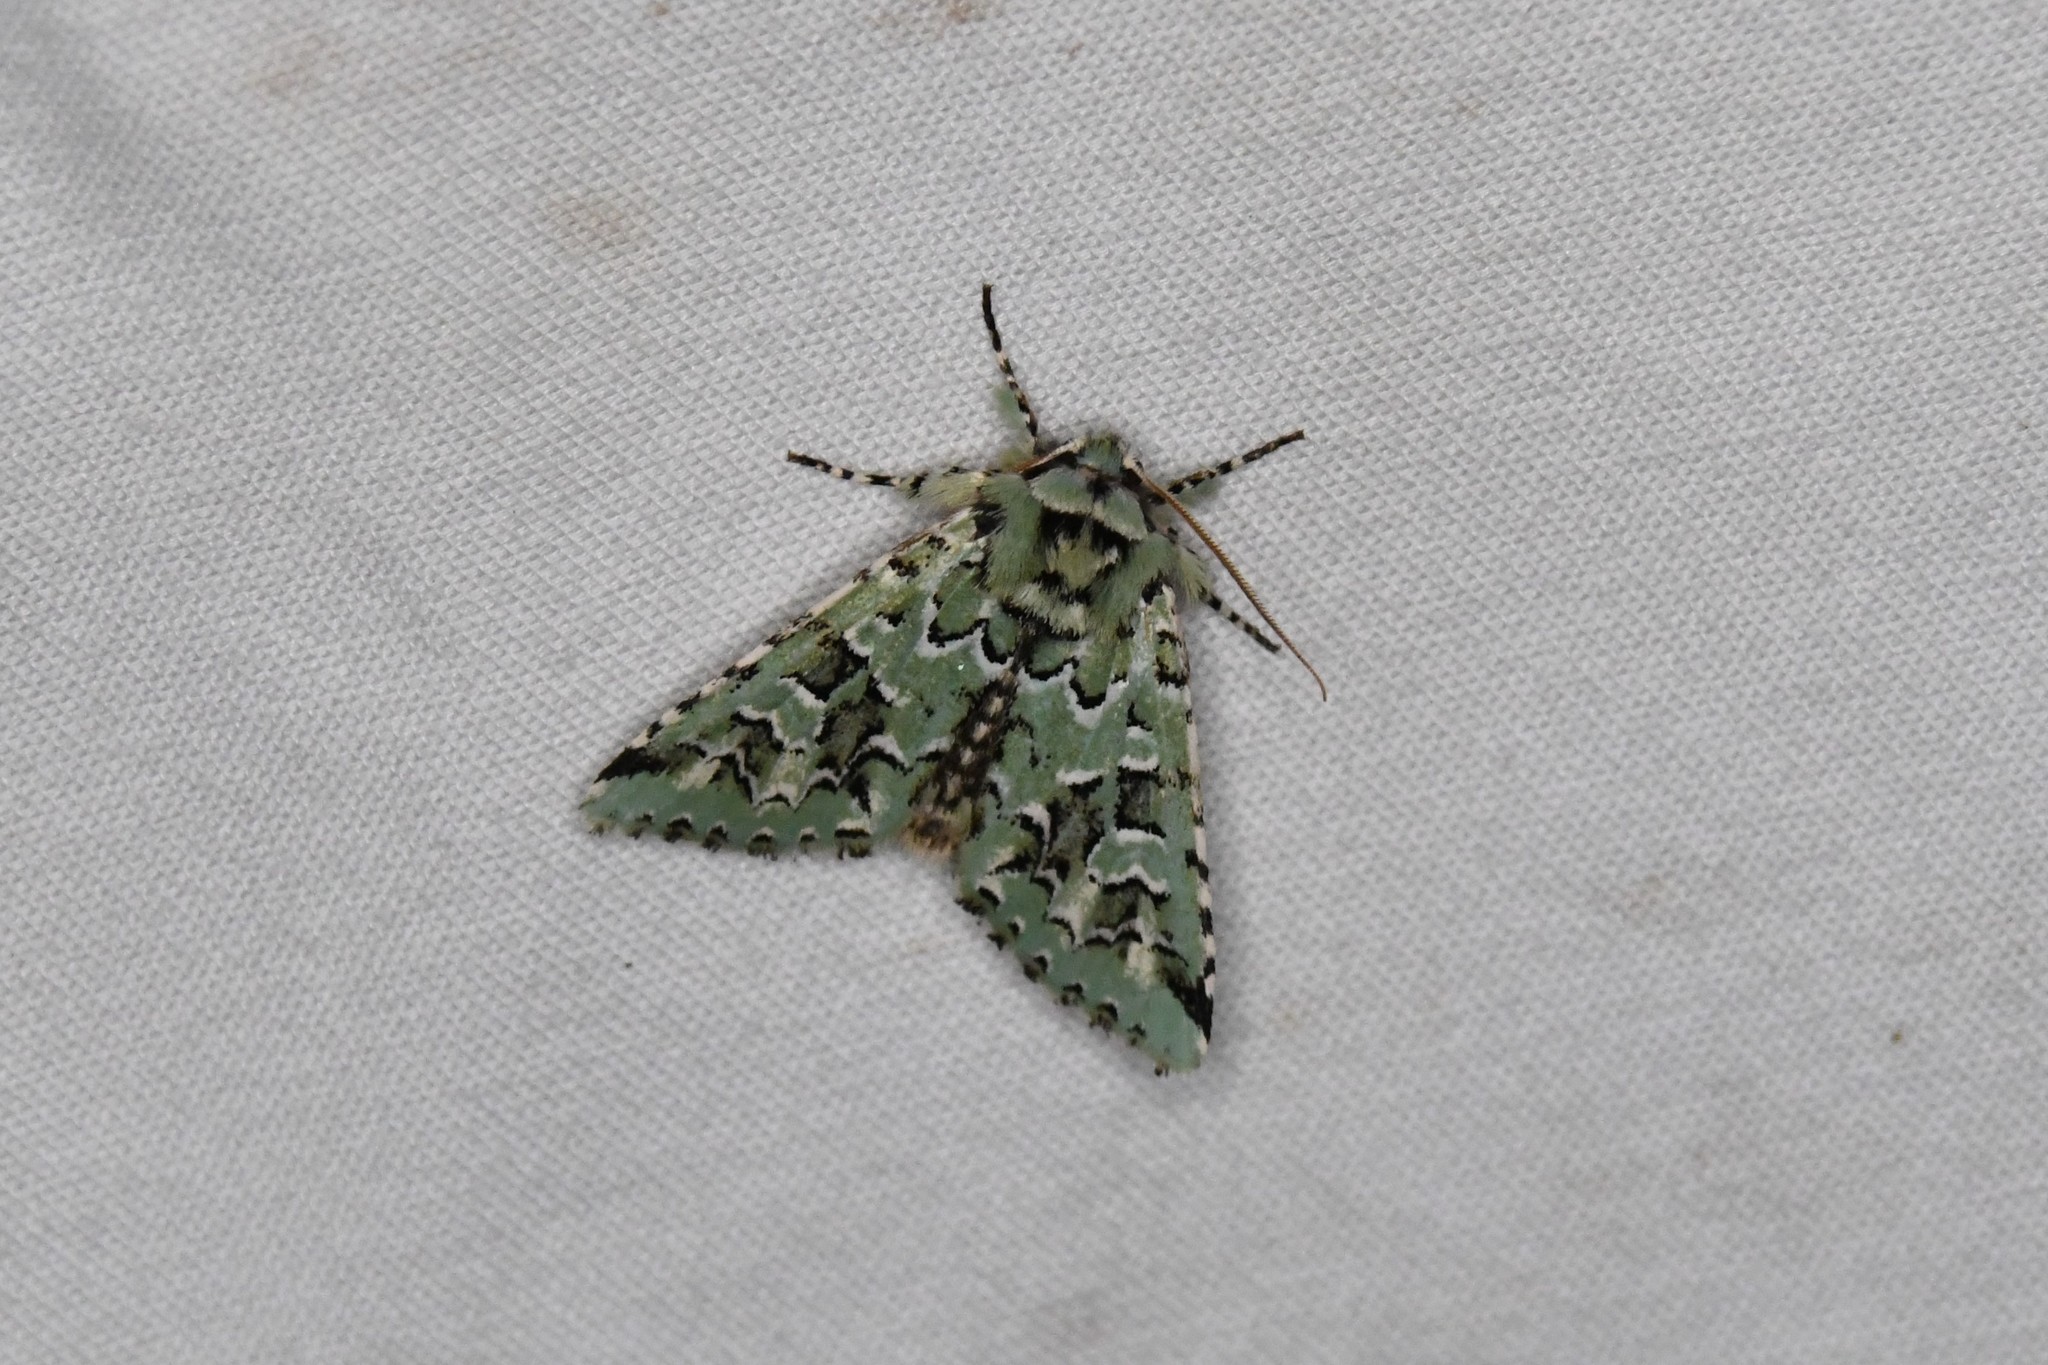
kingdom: Animalia
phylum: Arthropoda
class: Insecta
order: Lepidoptera
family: Noctuidae
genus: Feralia
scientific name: Feralia comstocki
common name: Comstock's sallow
